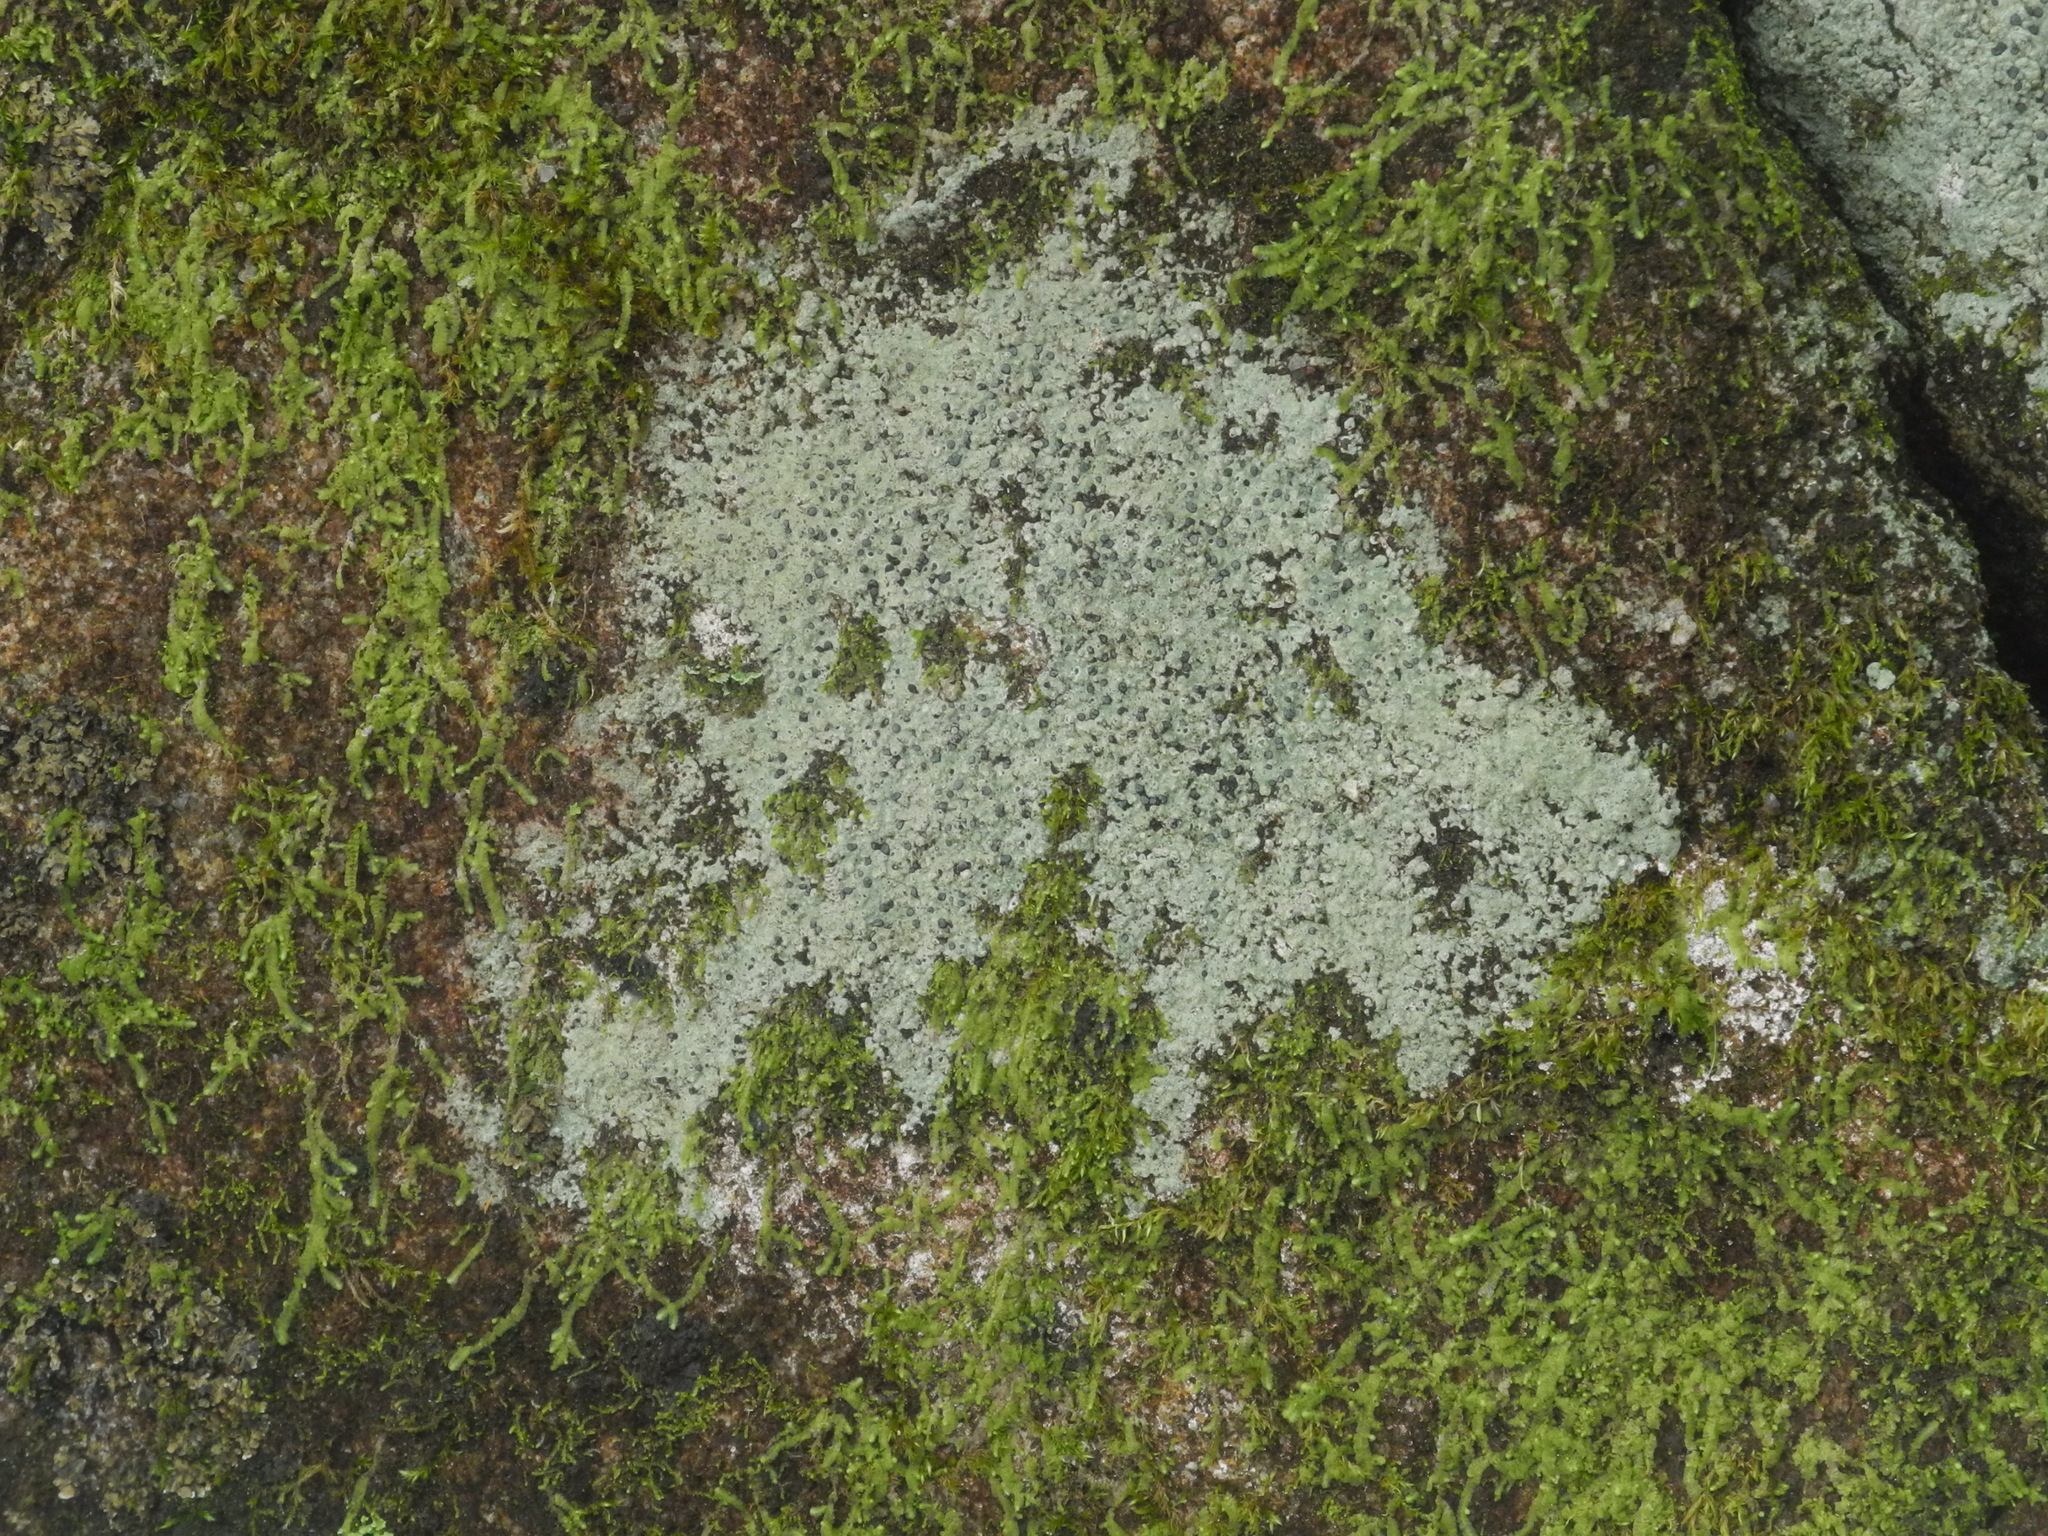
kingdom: Fungi
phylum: Ascomycota
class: Lecanoromycetes
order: Lecideales
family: Lecideaceae
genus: Porpidia
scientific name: Porpidia albocaerulescens
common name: Smokey-eyed boulder lichen
